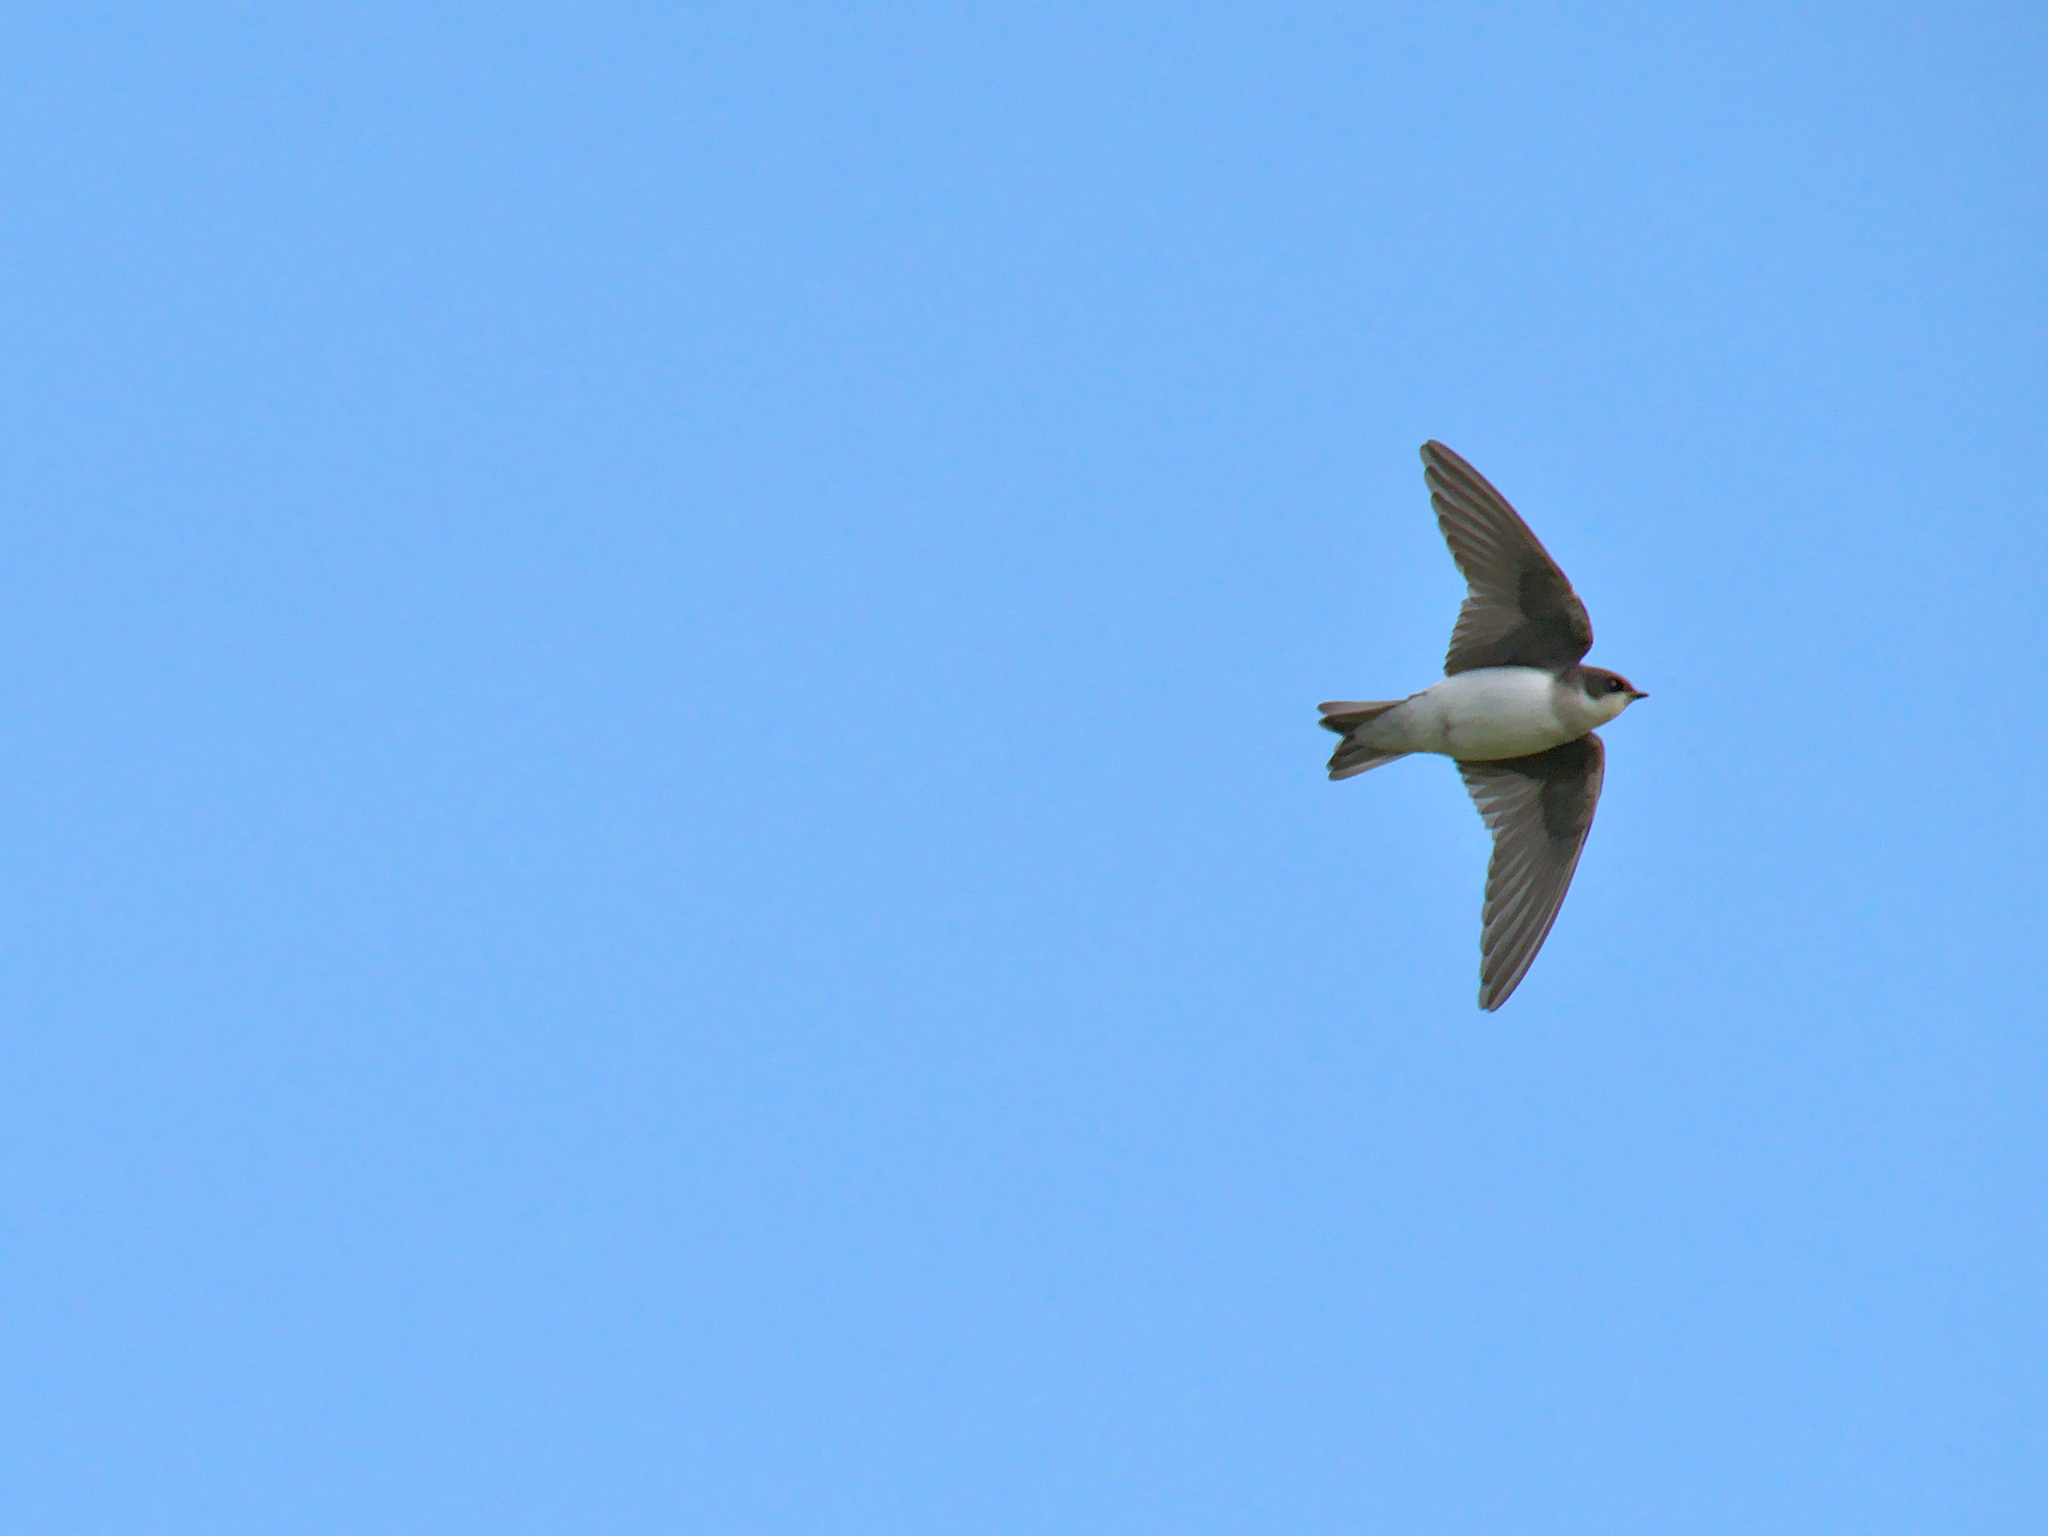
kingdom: Animalia
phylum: Chordata
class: Aves
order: Passeriformes
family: Hirundinidae
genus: Tachycineta
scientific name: Tachycineta bicolor
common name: Tree swallow
